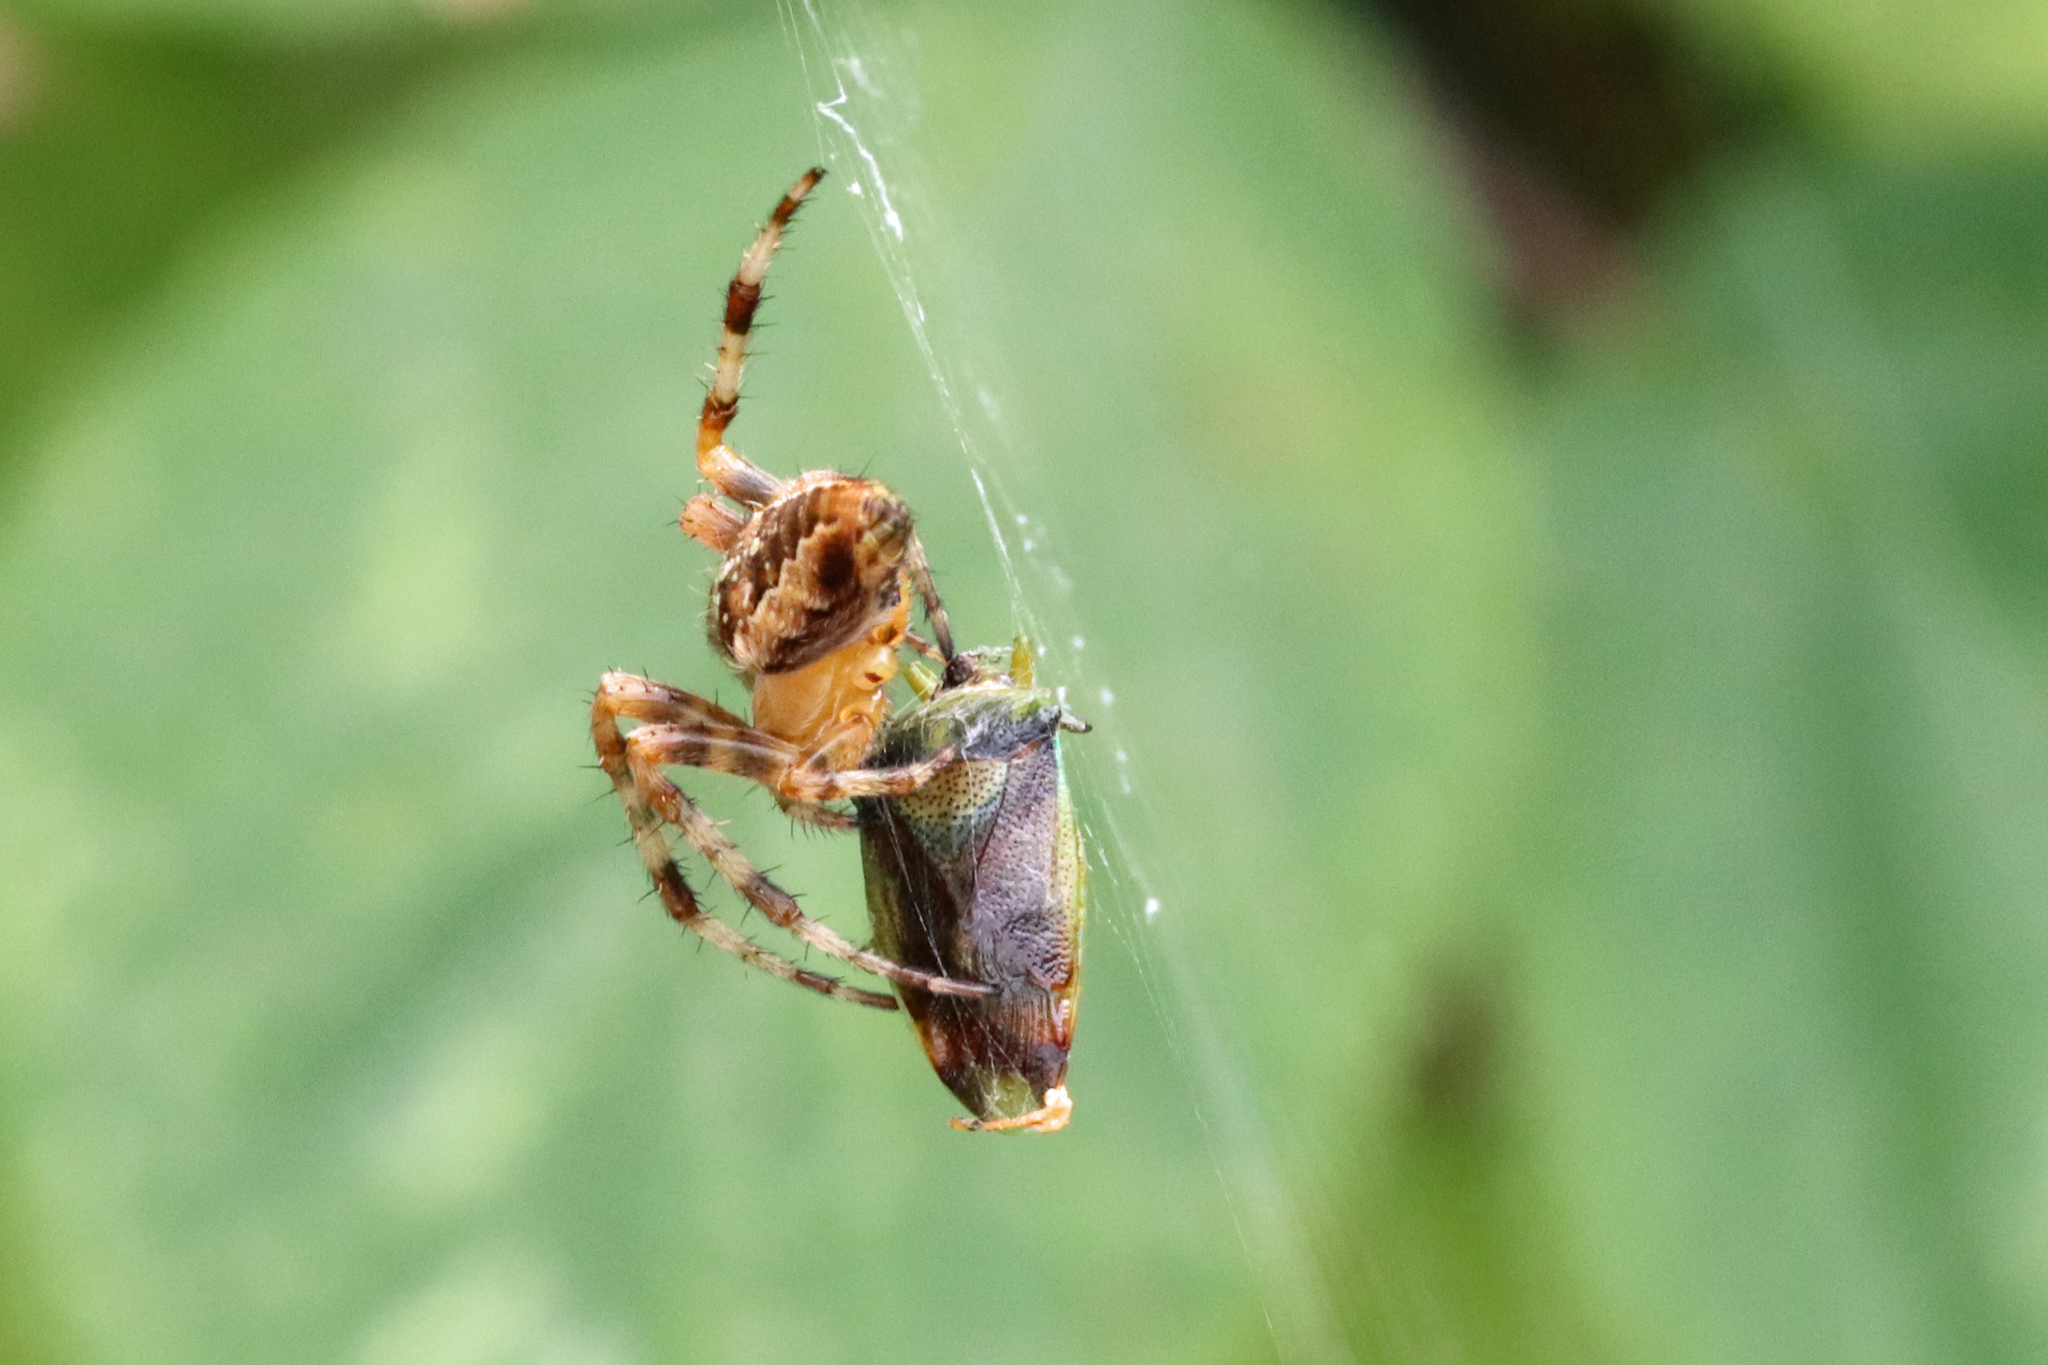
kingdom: Animalia
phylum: Arthropoda
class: Arachnida
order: Araneae
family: Araneidae
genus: Araneus
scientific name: Araneus diadematus
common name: Cross orbweaver
